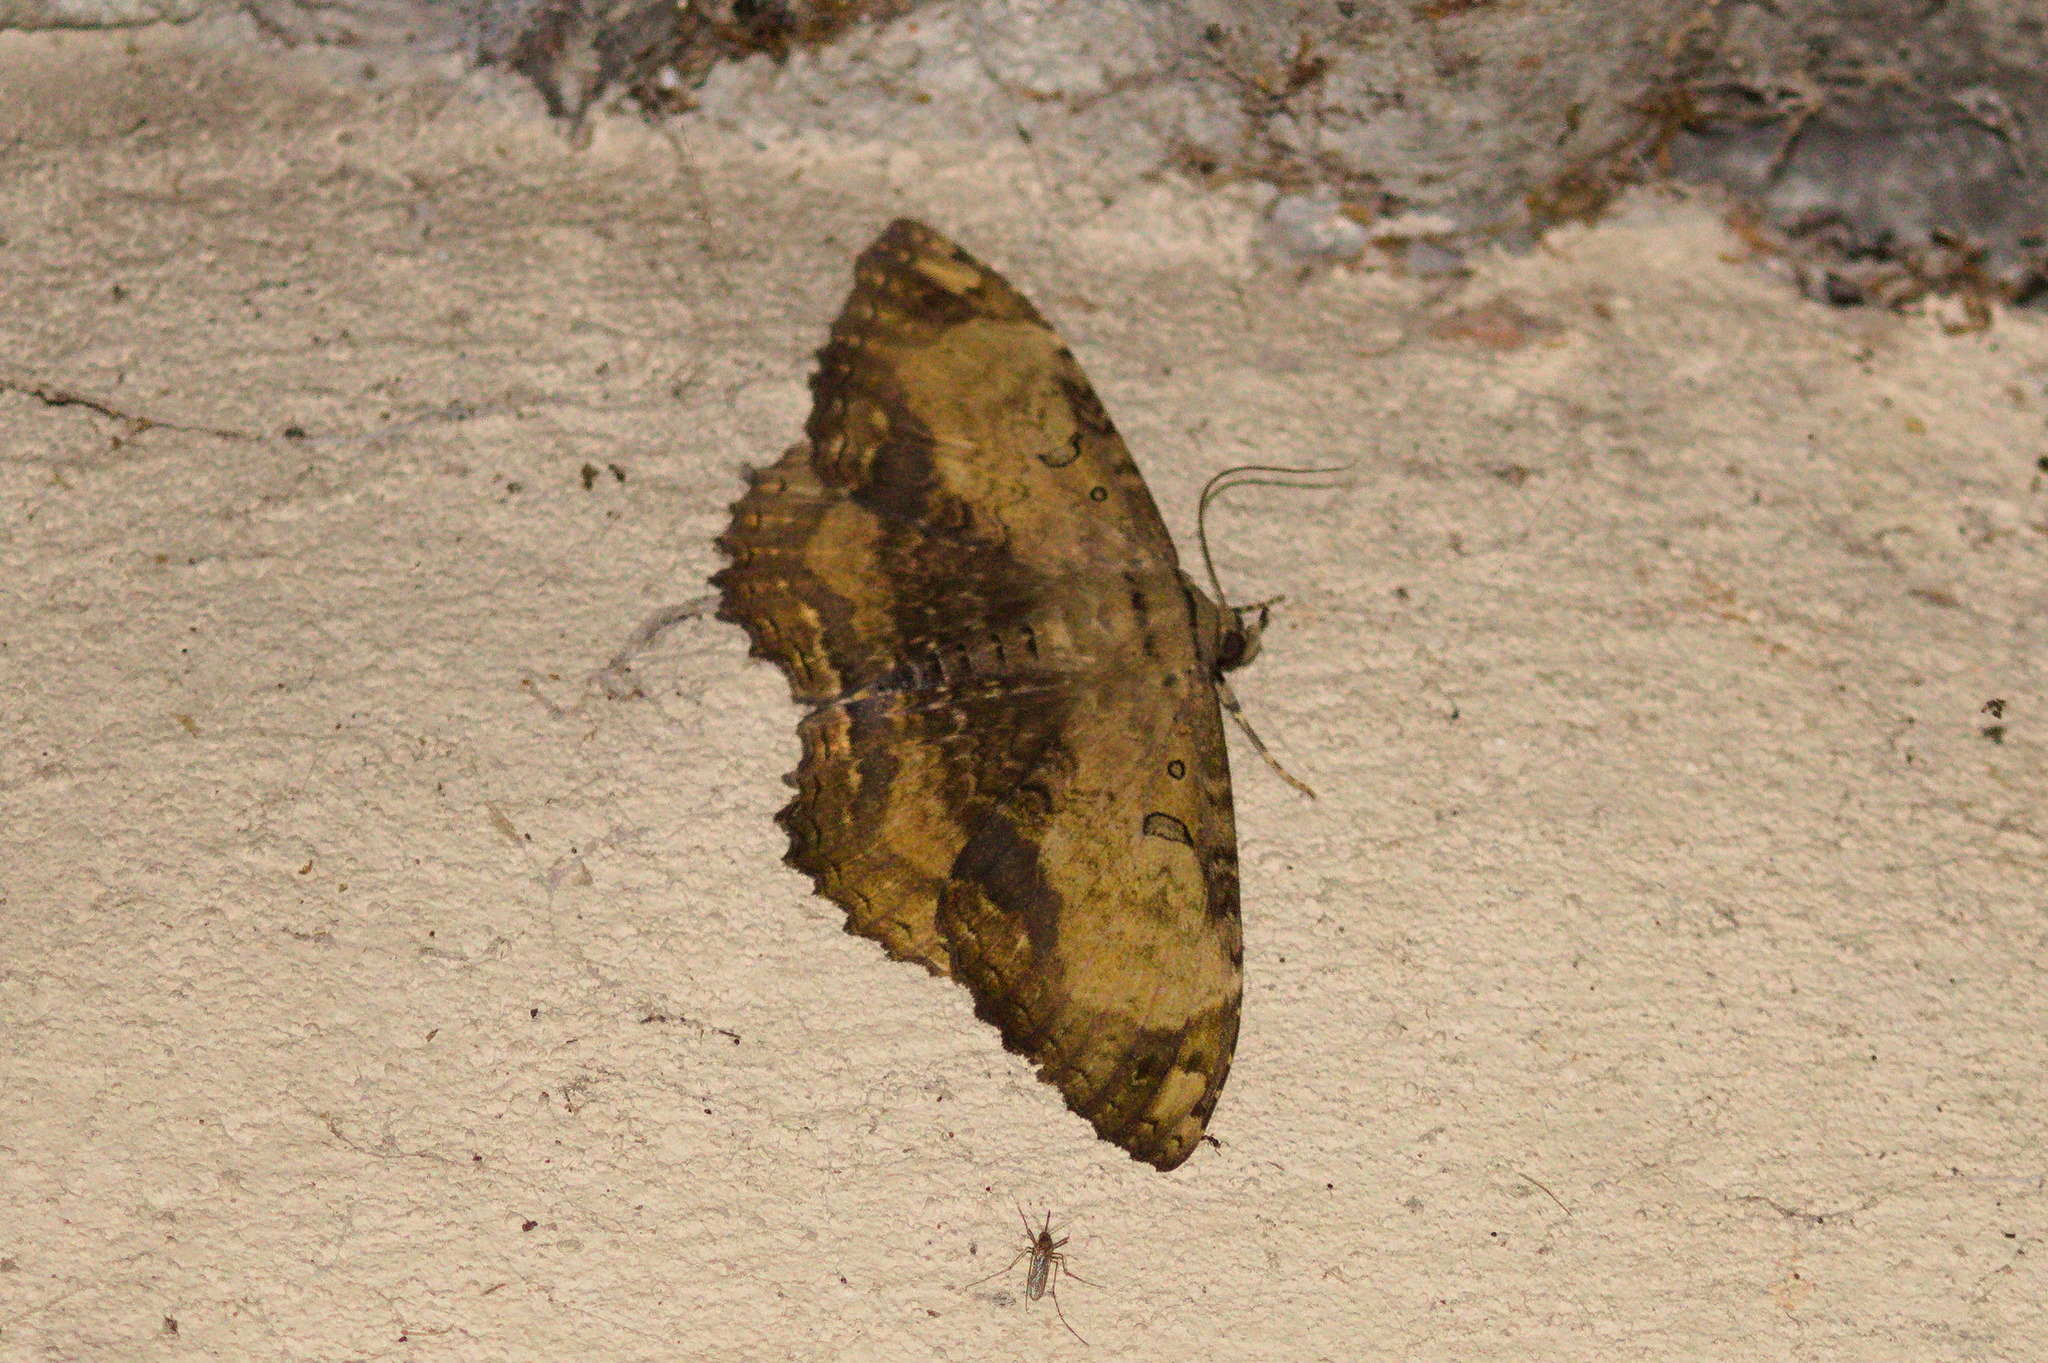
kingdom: Animalia
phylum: Arthropoda
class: Insecta
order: Lepidoptera
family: Erebidae
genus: Feigeria
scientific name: Feigeria magna
